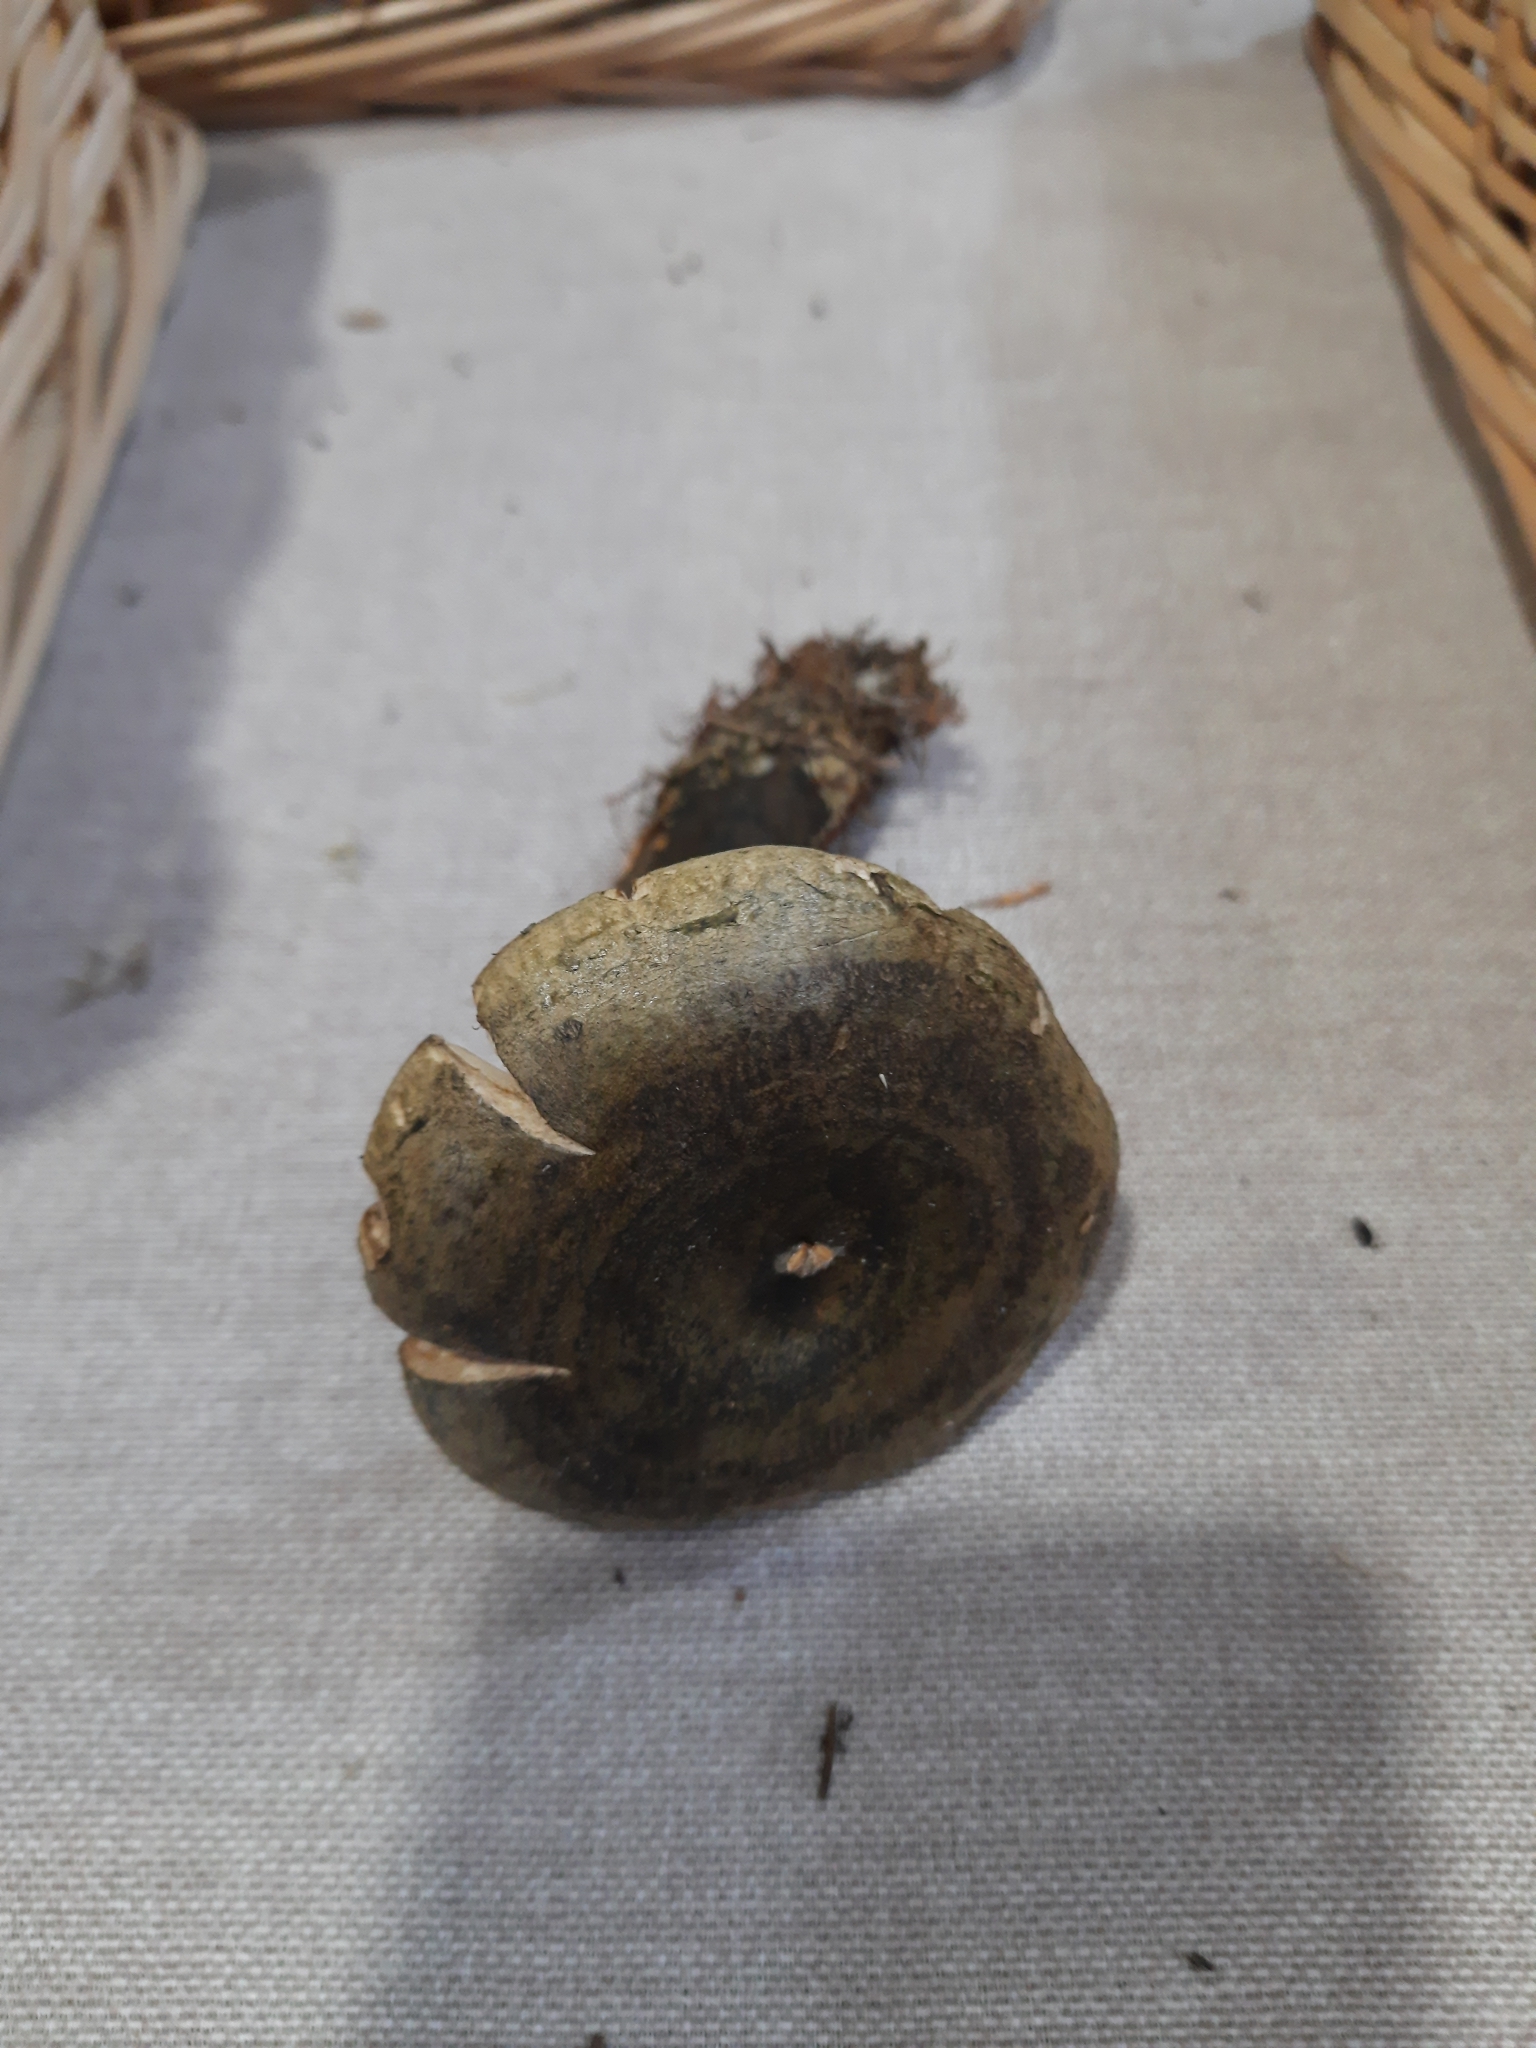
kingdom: Fungi
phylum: Basidiomycota
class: Agaricomycetes
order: Russulales
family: Russulaceae
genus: Lactarius
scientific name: Lactarius turpis
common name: Ugly milk-cap
